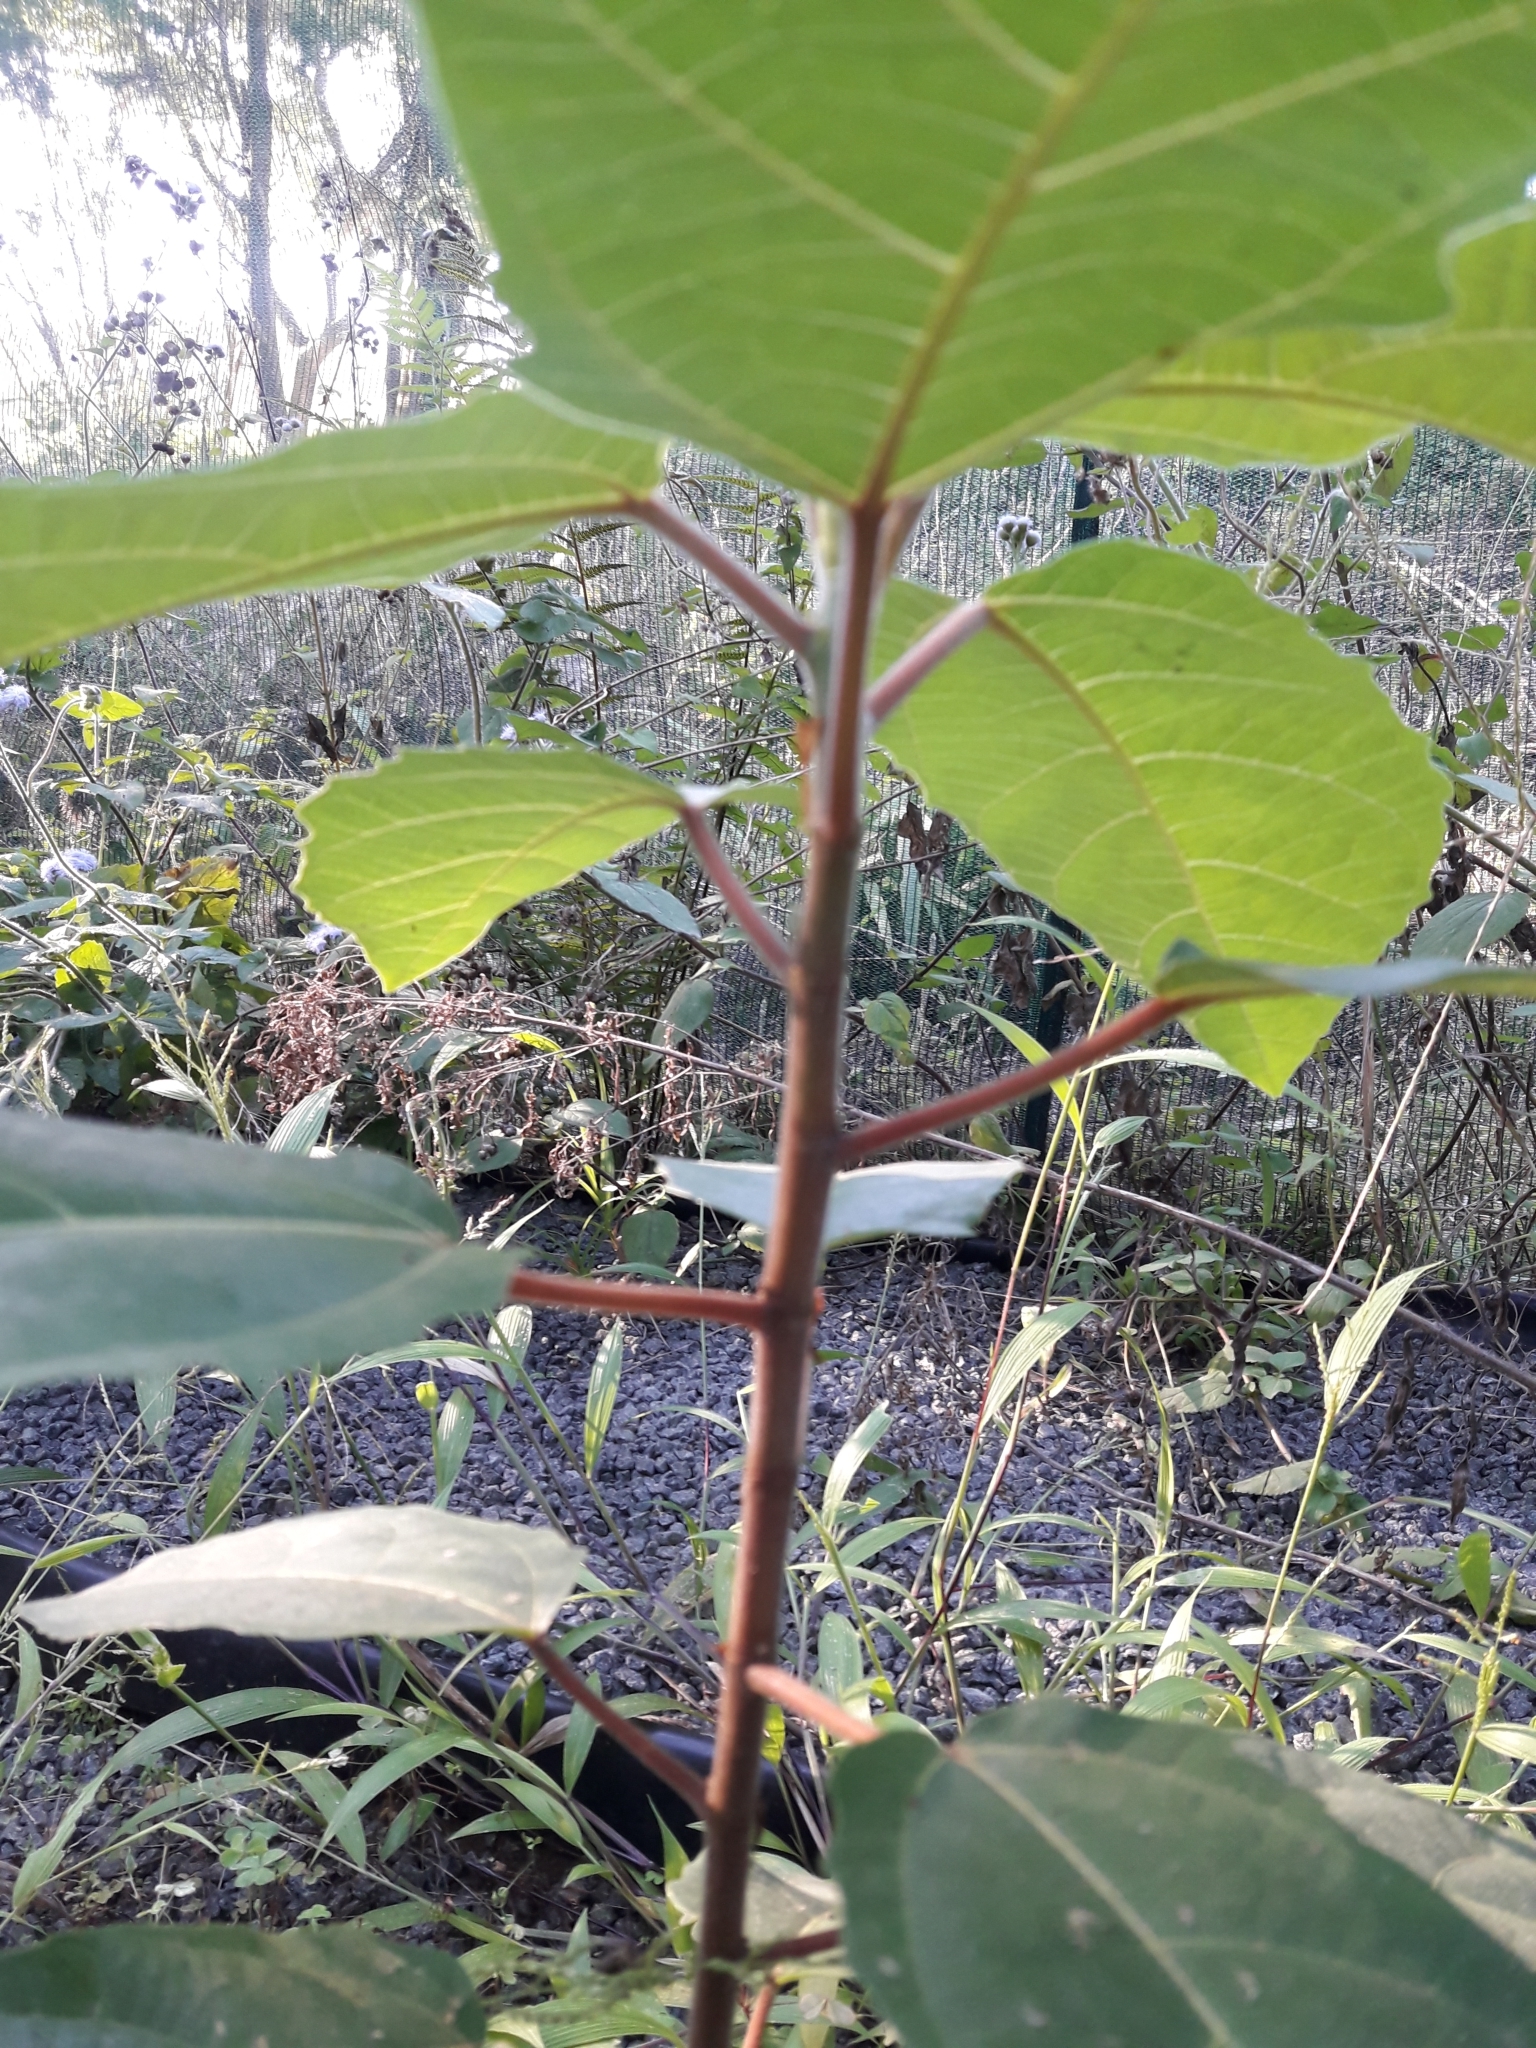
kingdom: Plantae
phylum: Tracheophyta
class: Magnoliopsida
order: Rosales
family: Moraceae
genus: Ficus
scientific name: Ficus sur
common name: Cape fig
